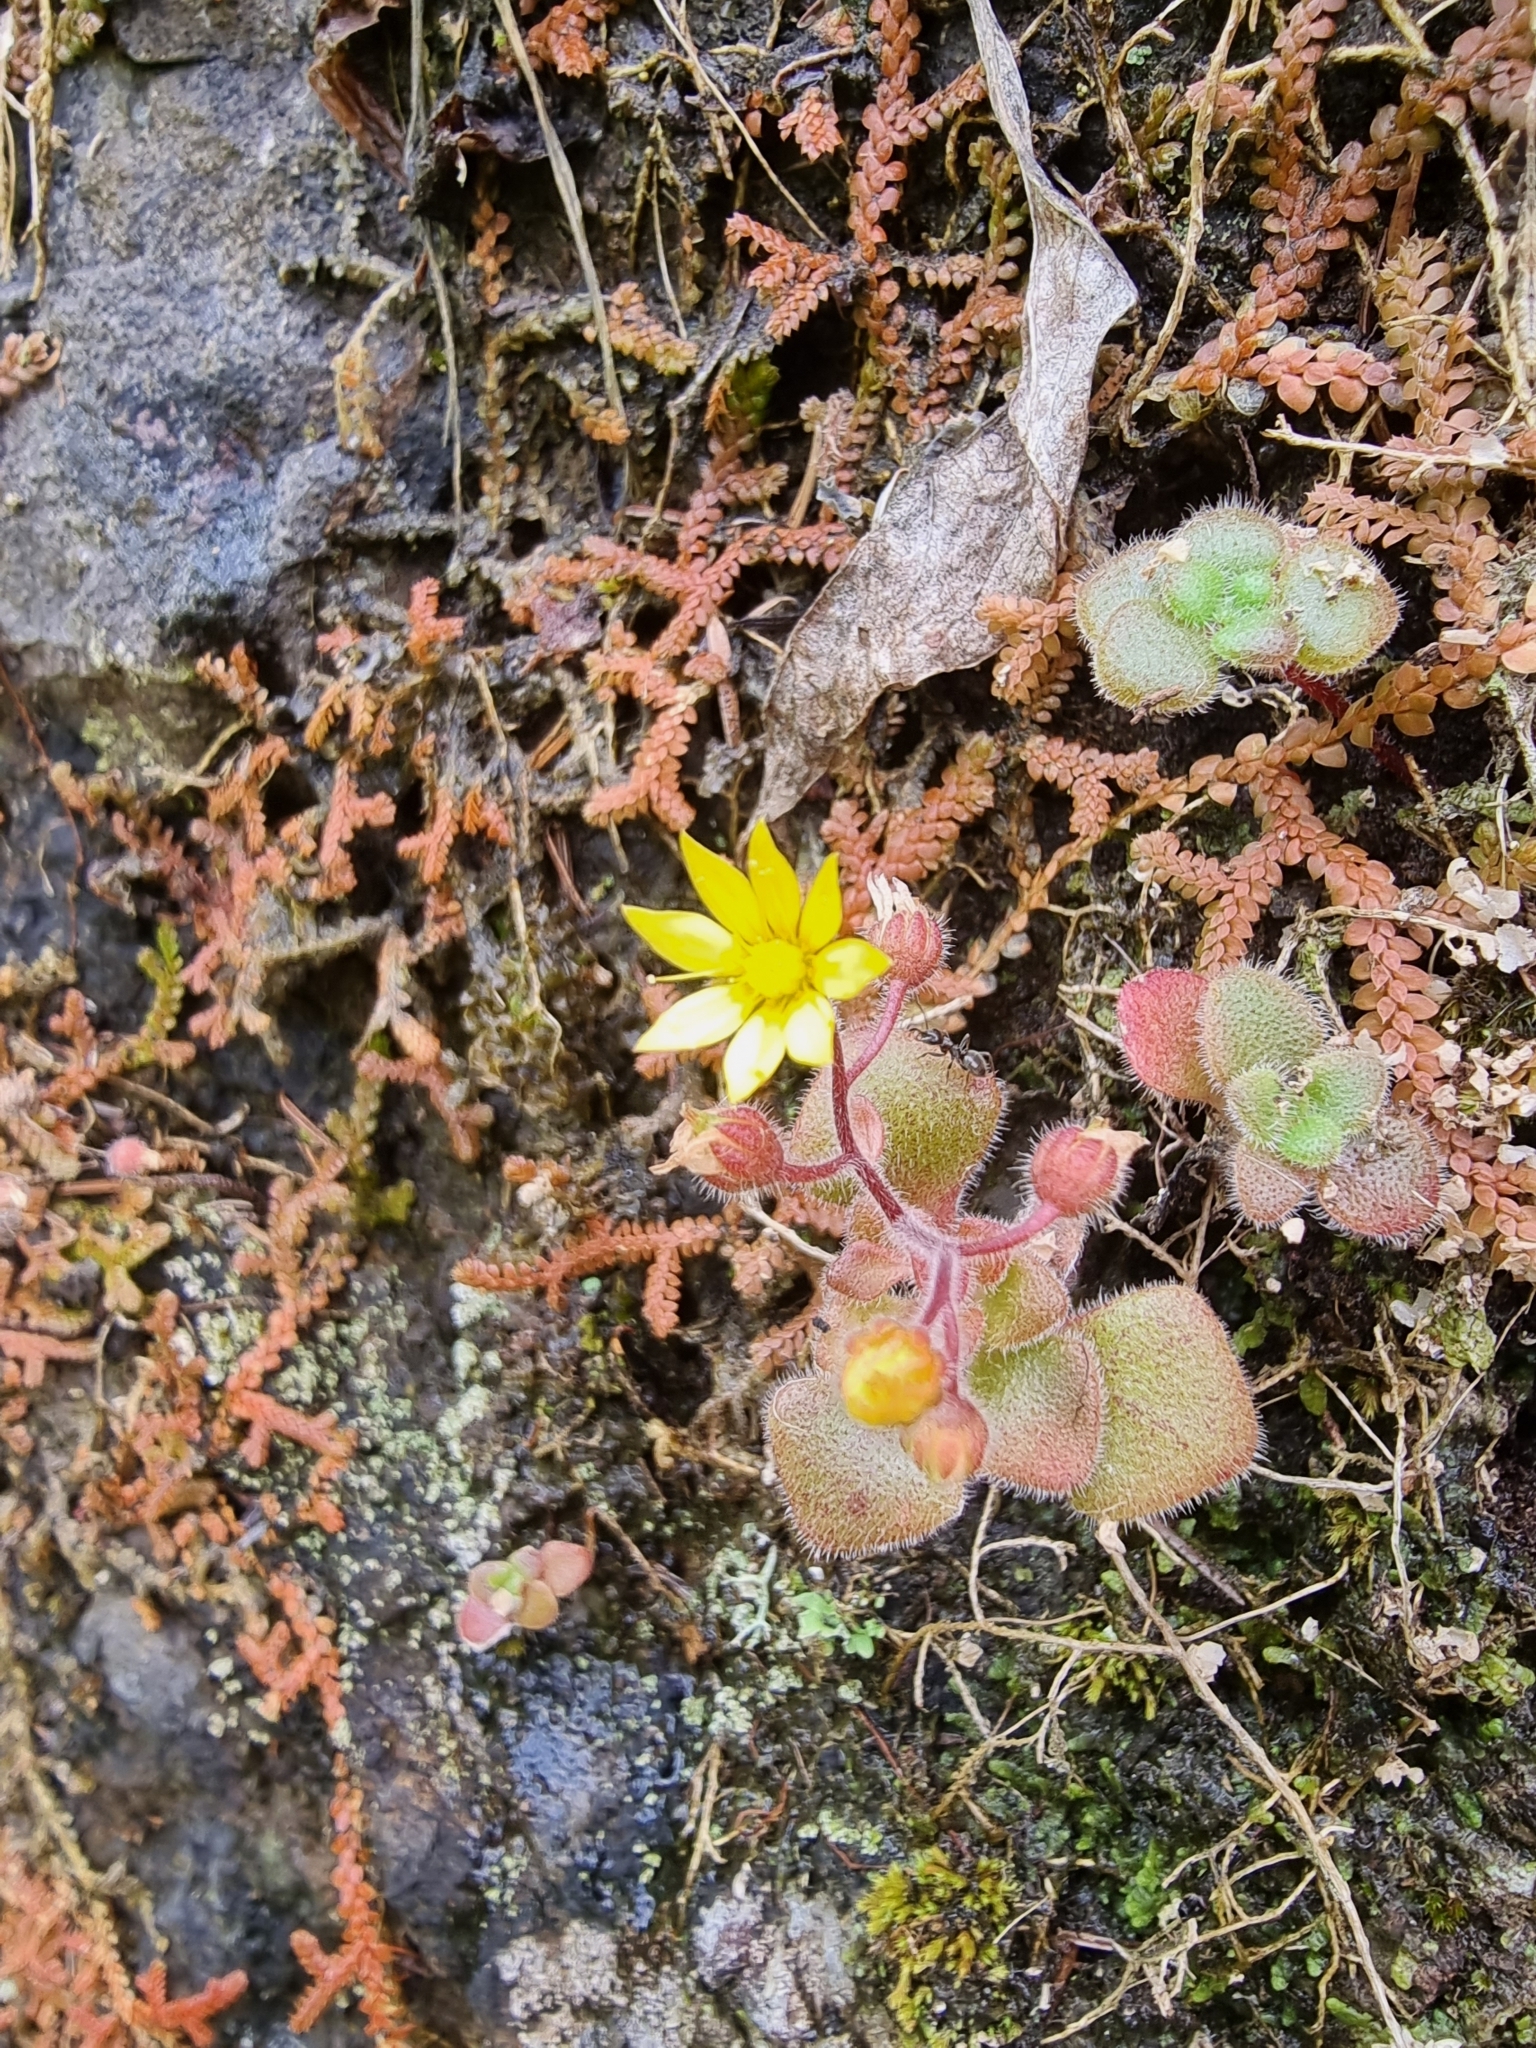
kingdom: Plantae
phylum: Tracheophyta
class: Magnoliopsida
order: Saxifragales
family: Crassulaceae
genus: Aichryson
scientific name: Aichryson villosum
